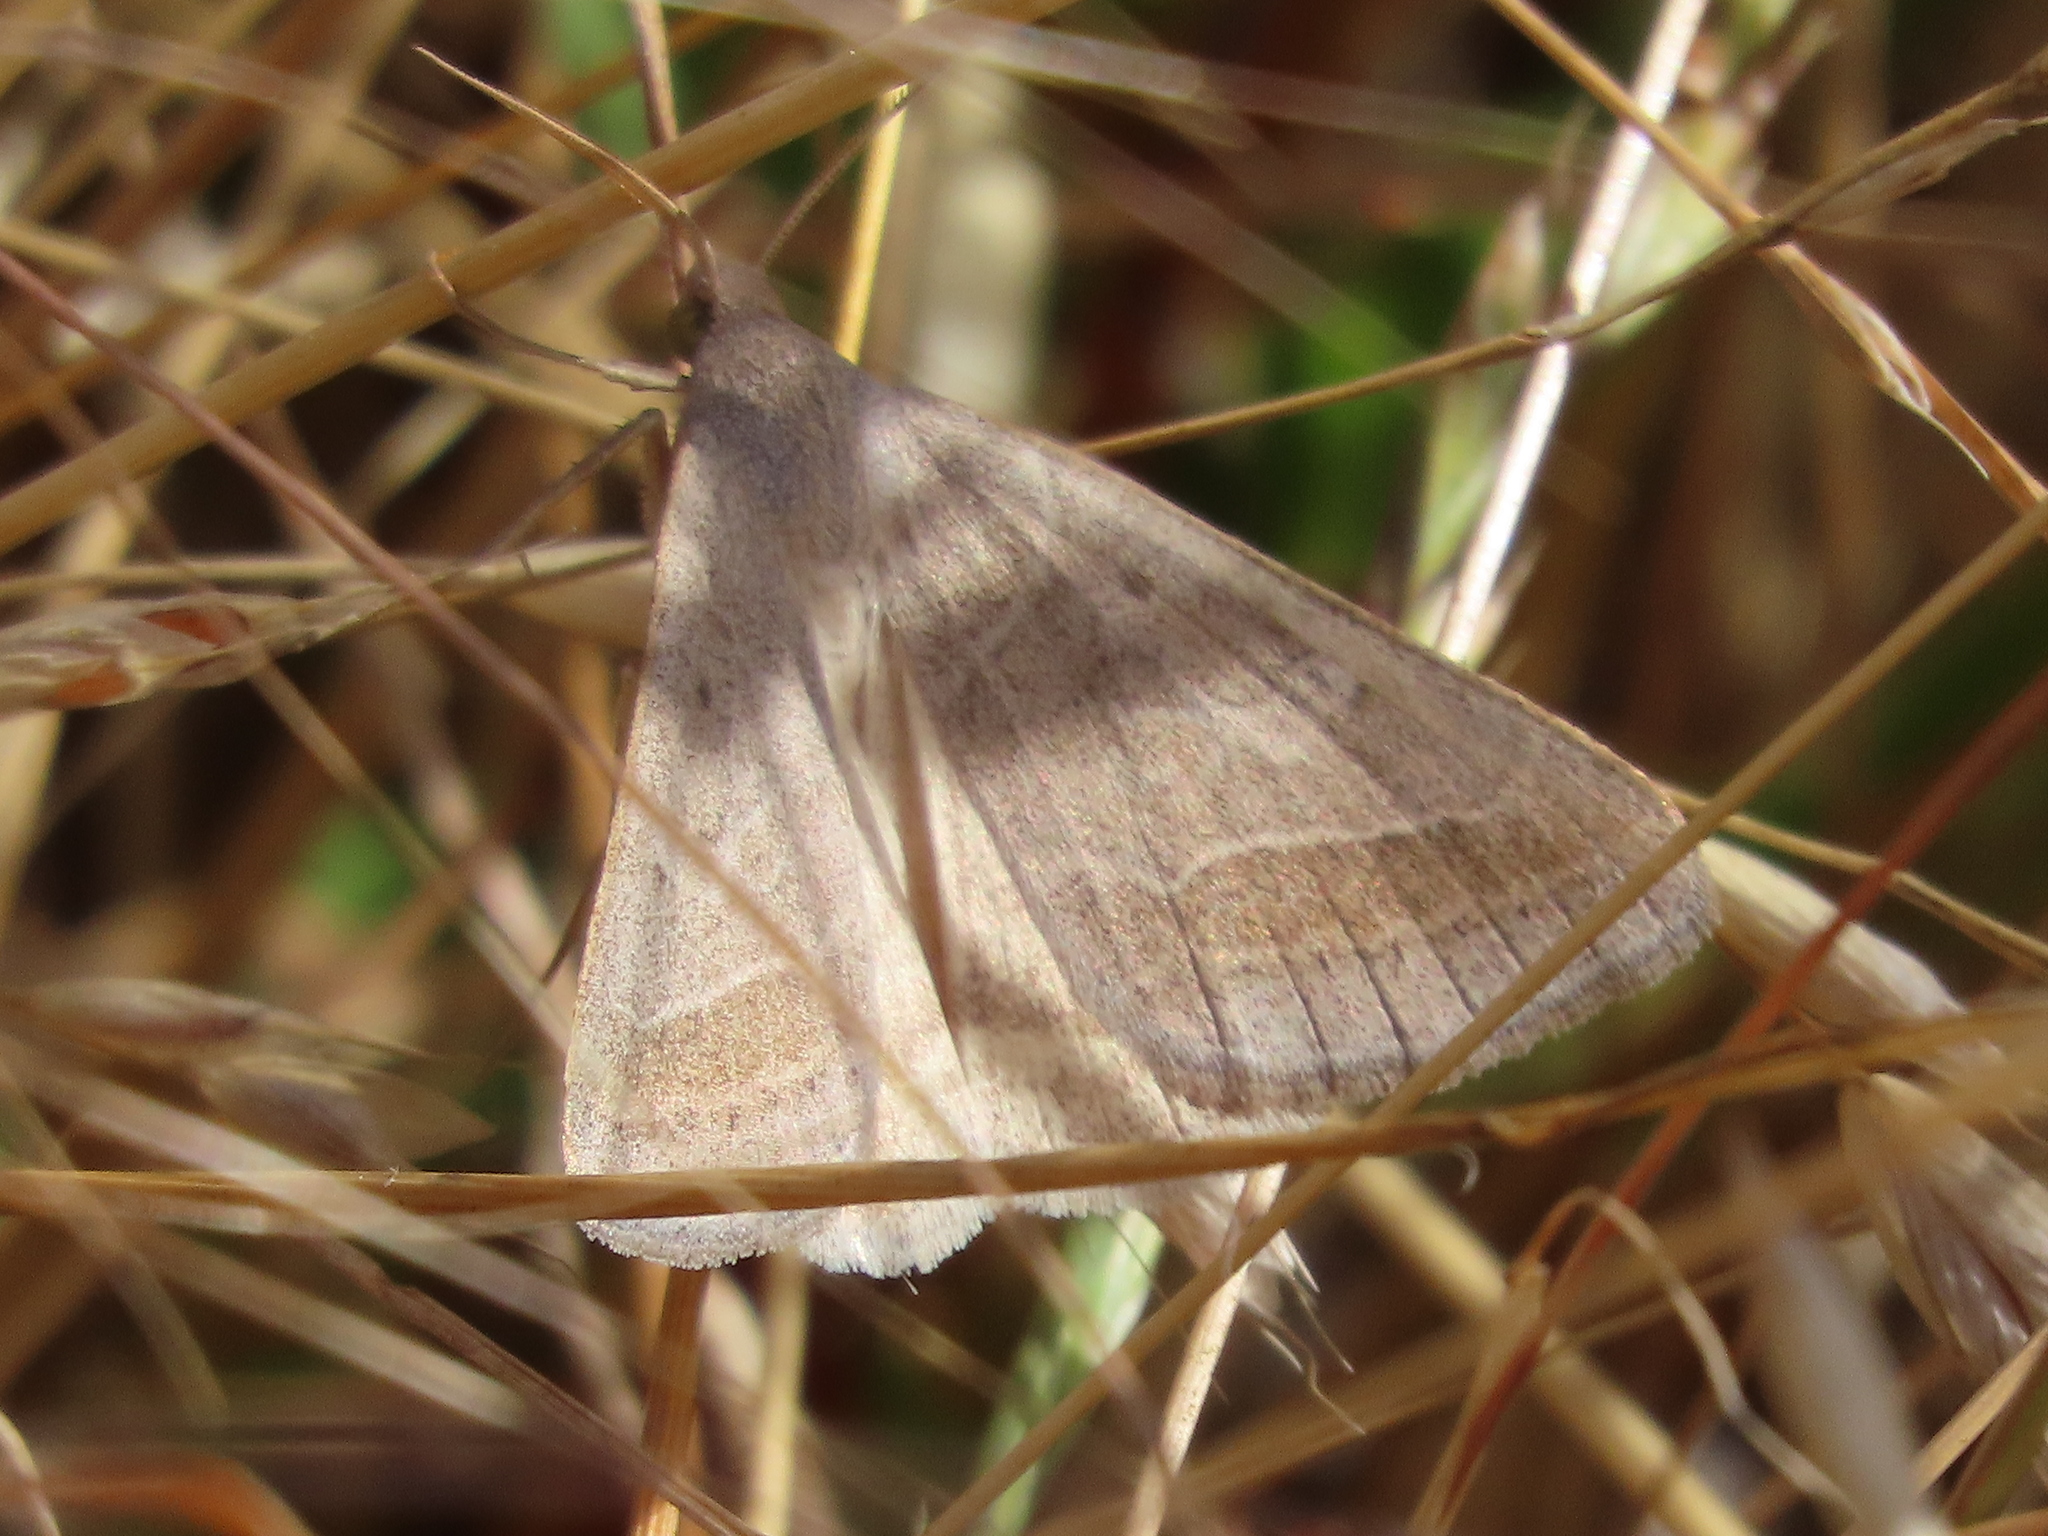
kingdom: Animalia
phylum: Arthropoda
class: Insecta
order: Lepidoptera
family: Erebidae
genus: Caenurgia
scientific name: Caenurgia togataria
